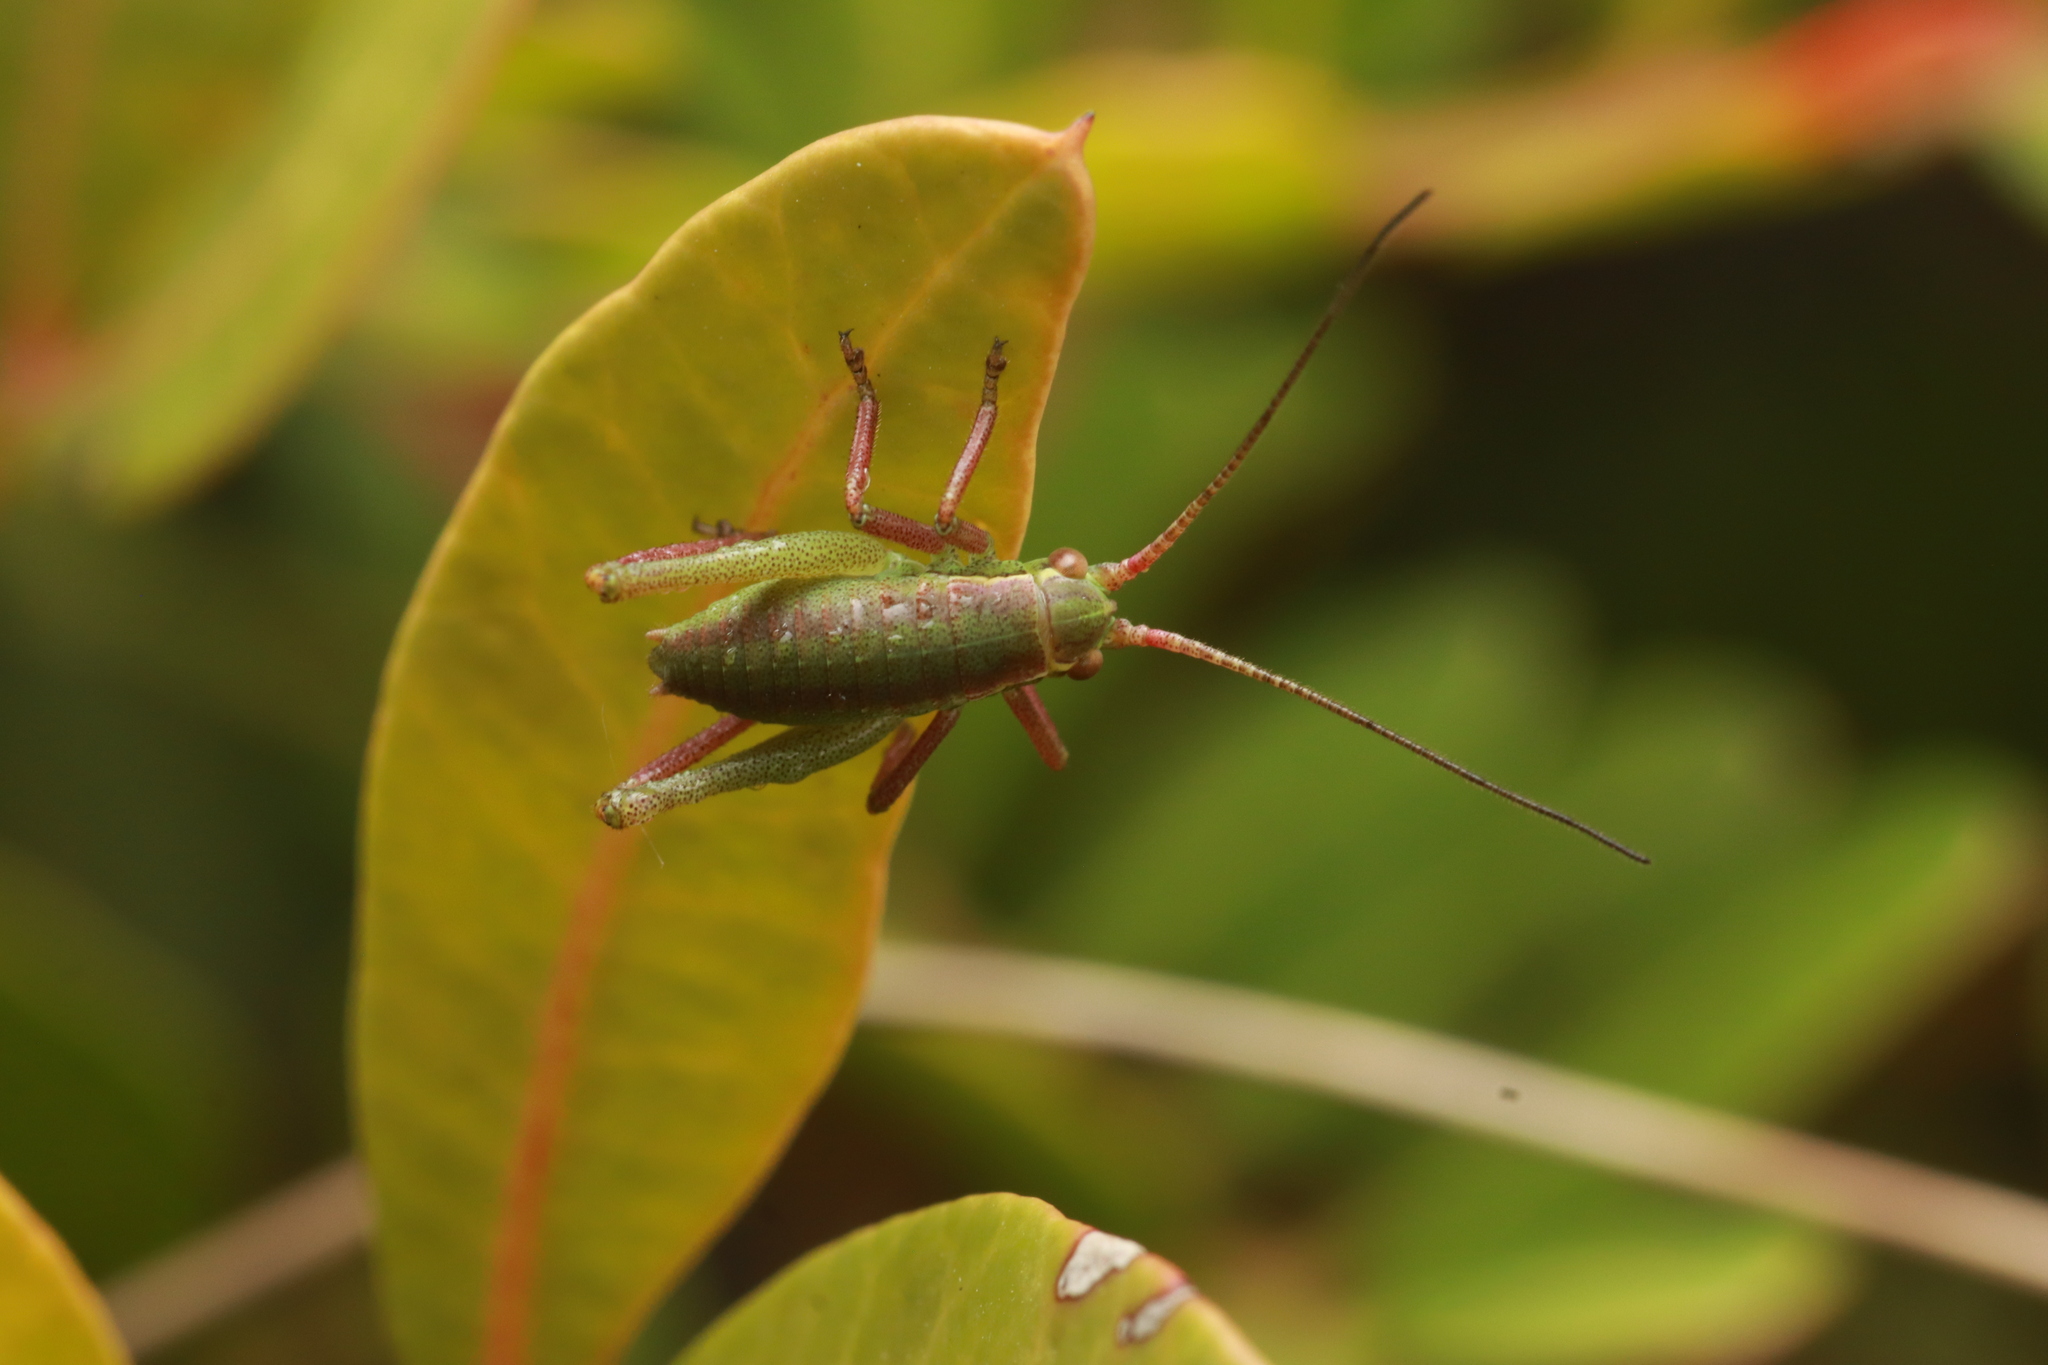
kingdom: Animalia
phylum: Arthropoda
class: Insecta
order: Orthoptera
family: Tettigoniidae
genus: Isophya
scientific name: Isophya pyrenaea
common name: Pyrenean plump bush-cricket
